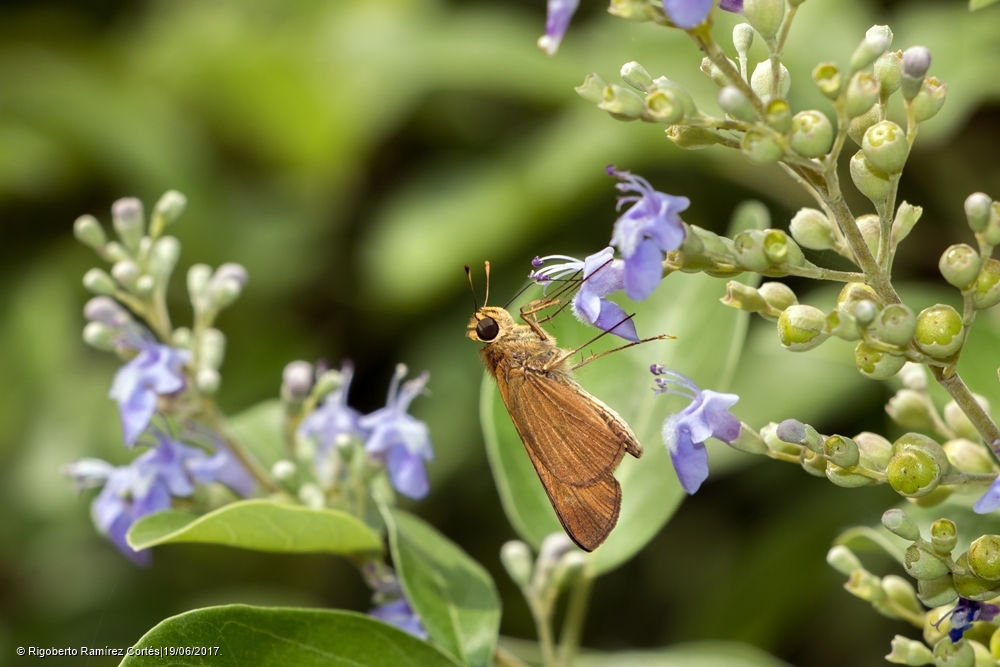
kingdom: Animalia
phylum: Arthropoda
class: Insecta
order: Lepidoptera
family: Hesperiidae
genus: Panoquina
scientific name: Panoquina hecebolus
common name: Hecebolus skipper
